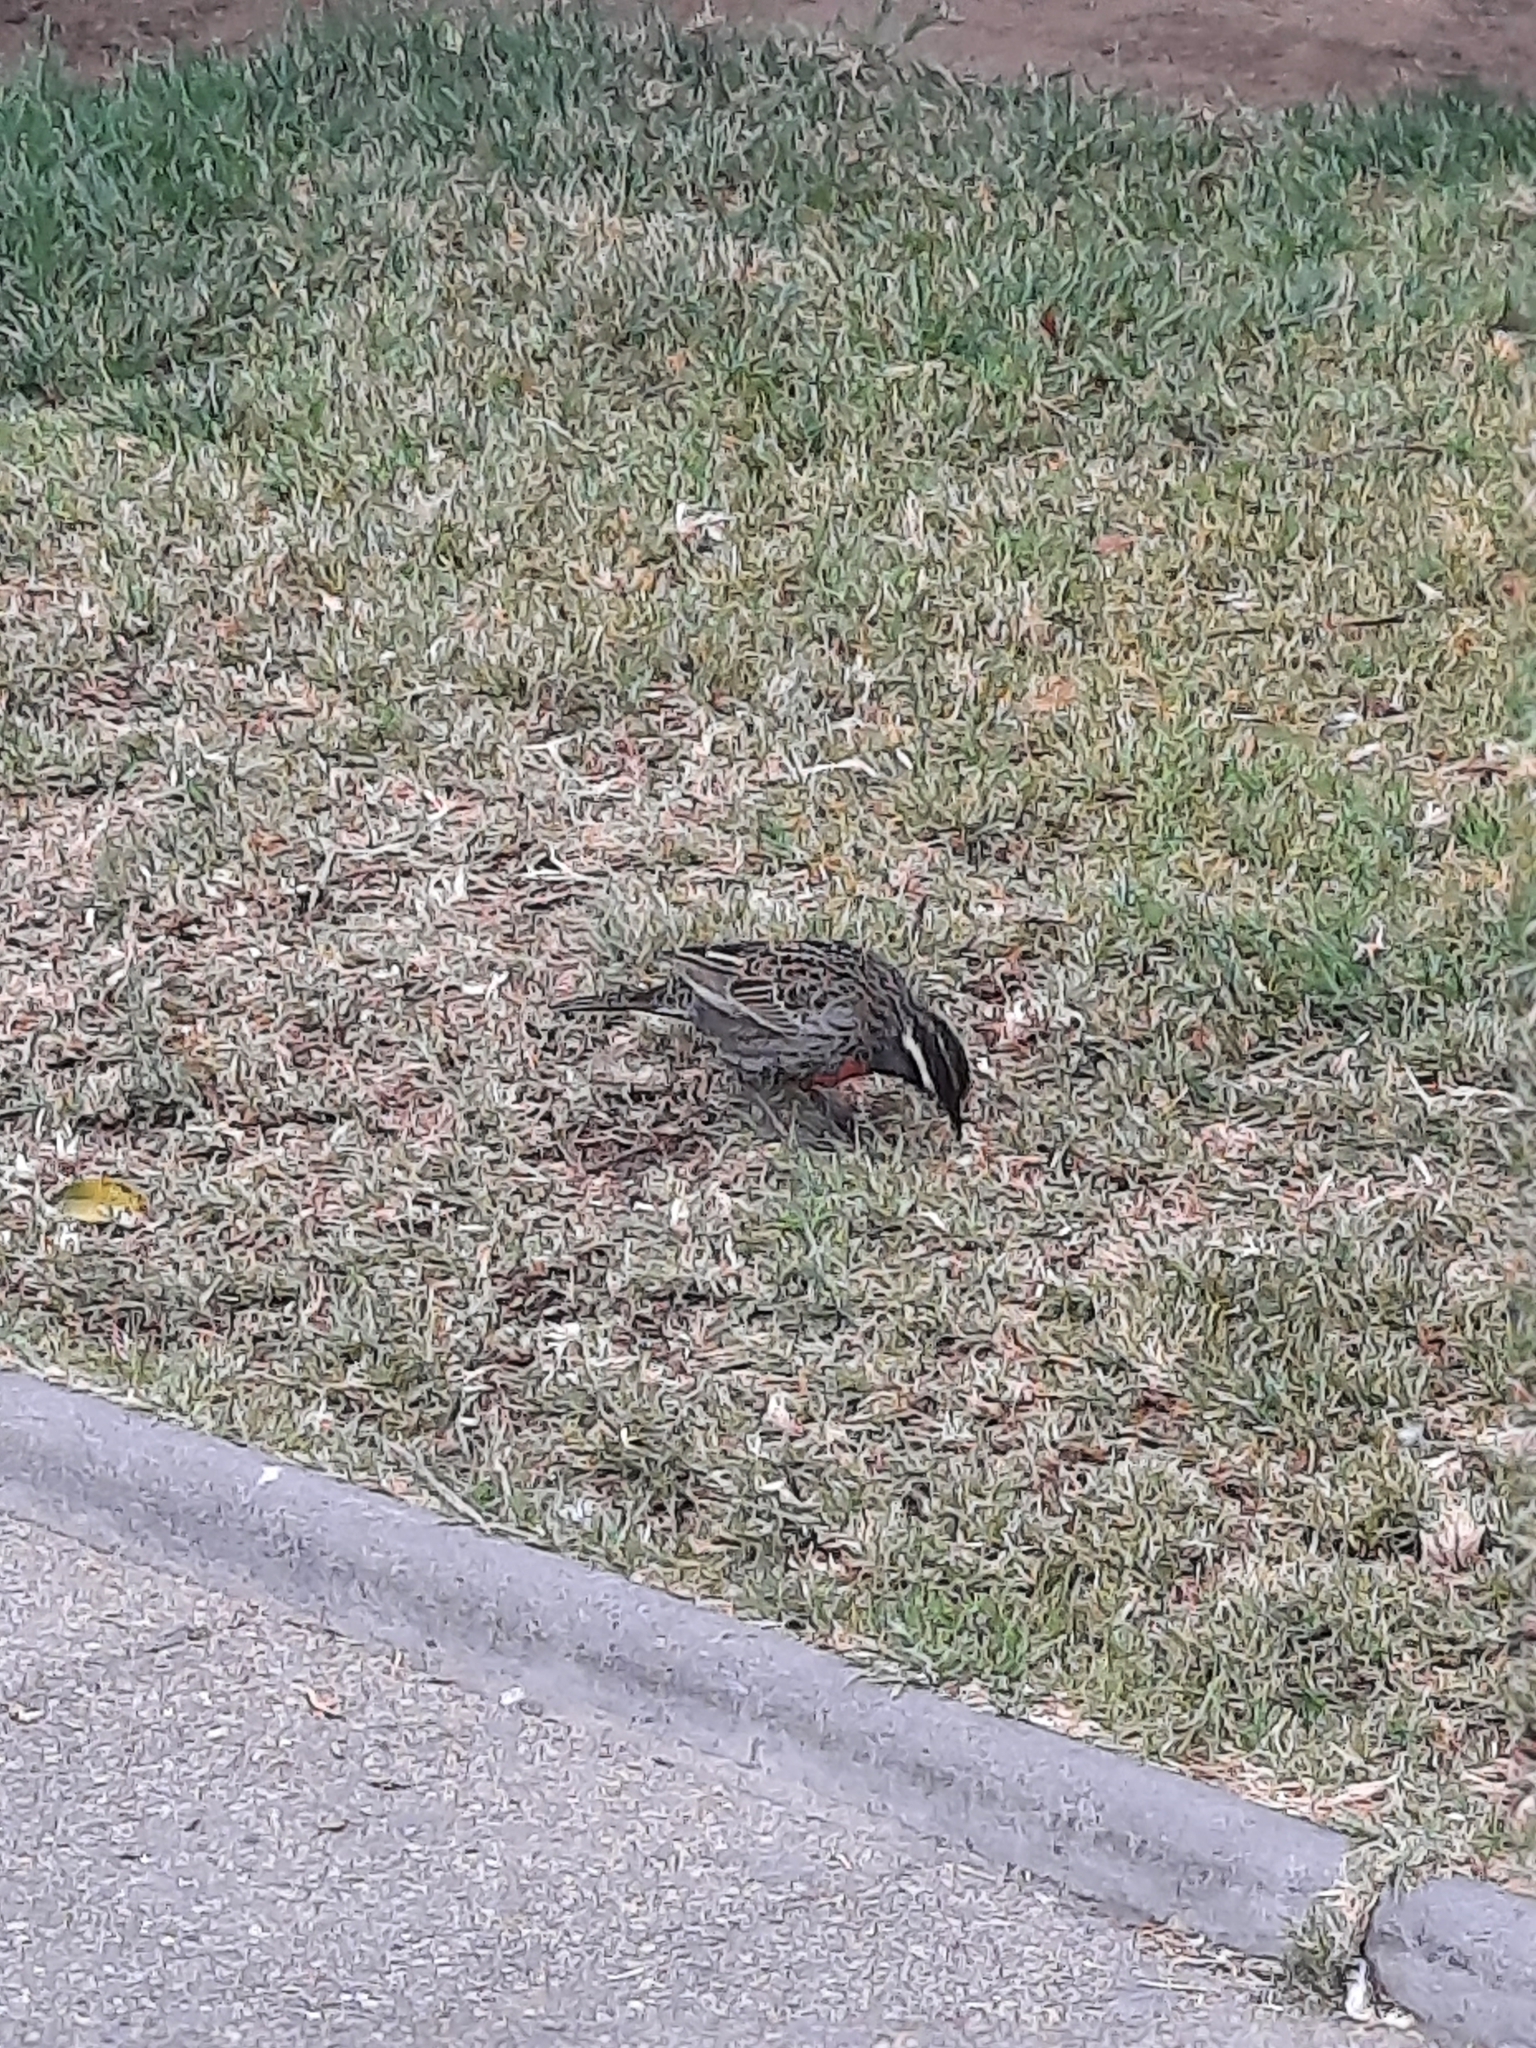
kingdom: Animalia
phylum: Chordata
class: Aves
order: Passeriformes
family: Icteridae
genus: Sturnella
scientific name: Sturnella loyca
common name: Long-tailed meadowlark
